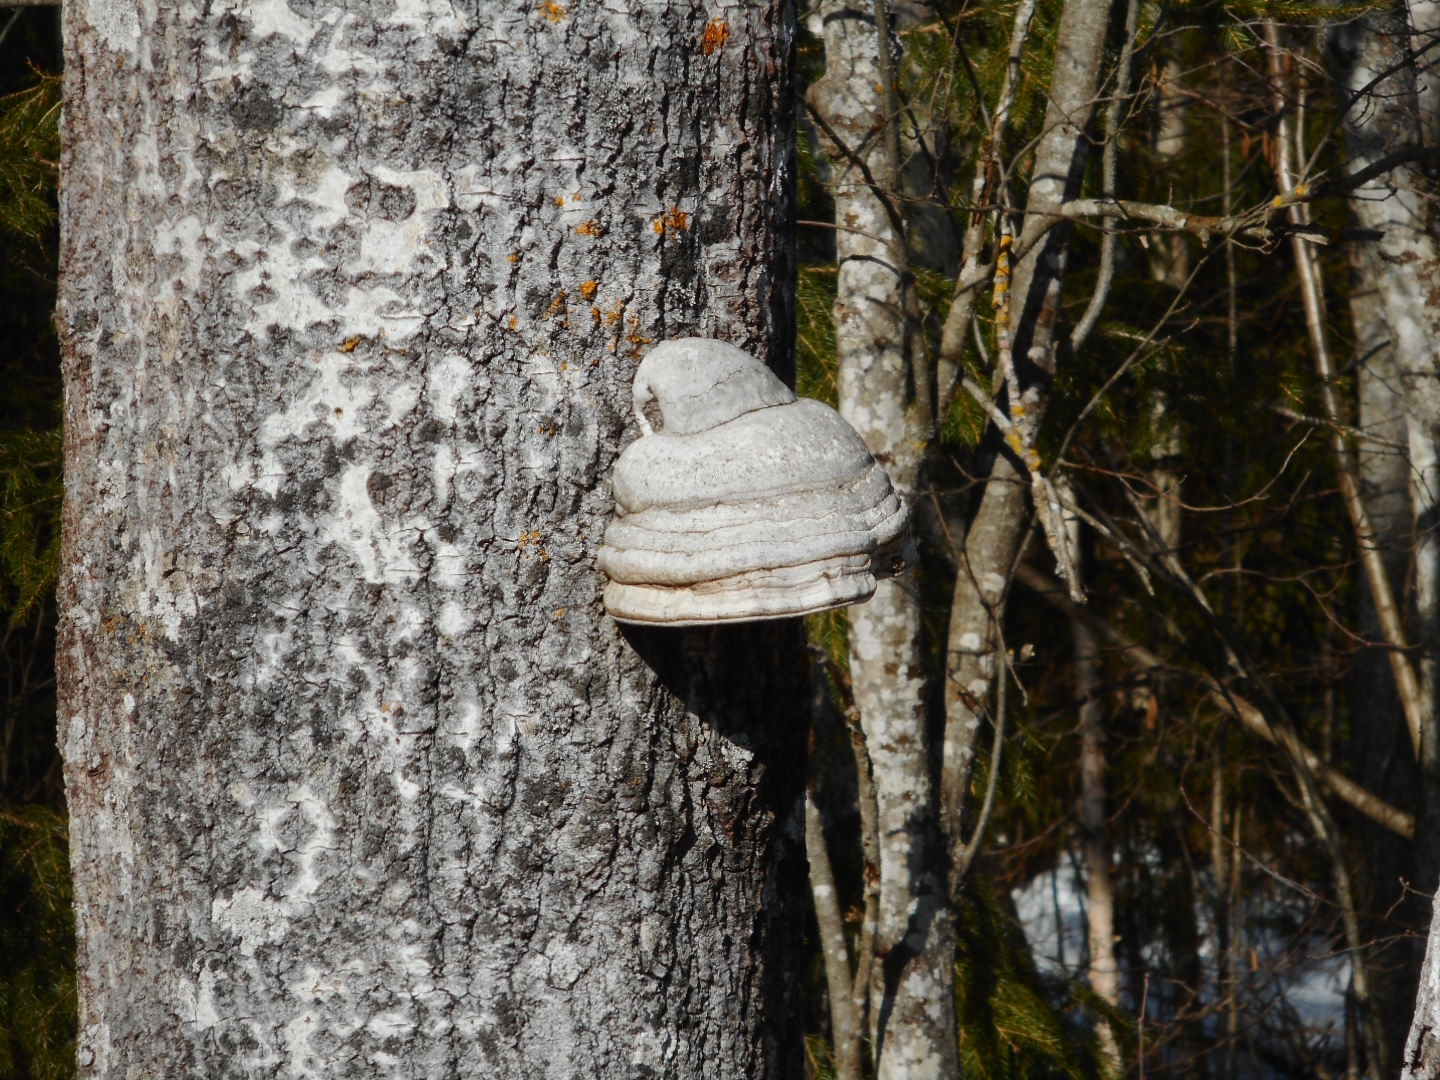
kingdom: Fungi
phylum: Basidiomycota
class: Agaricomycetes
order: Polyporales
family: Polyporaceae
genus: Fomes
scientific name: Fomes fomentarius
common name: Hoof fungus
